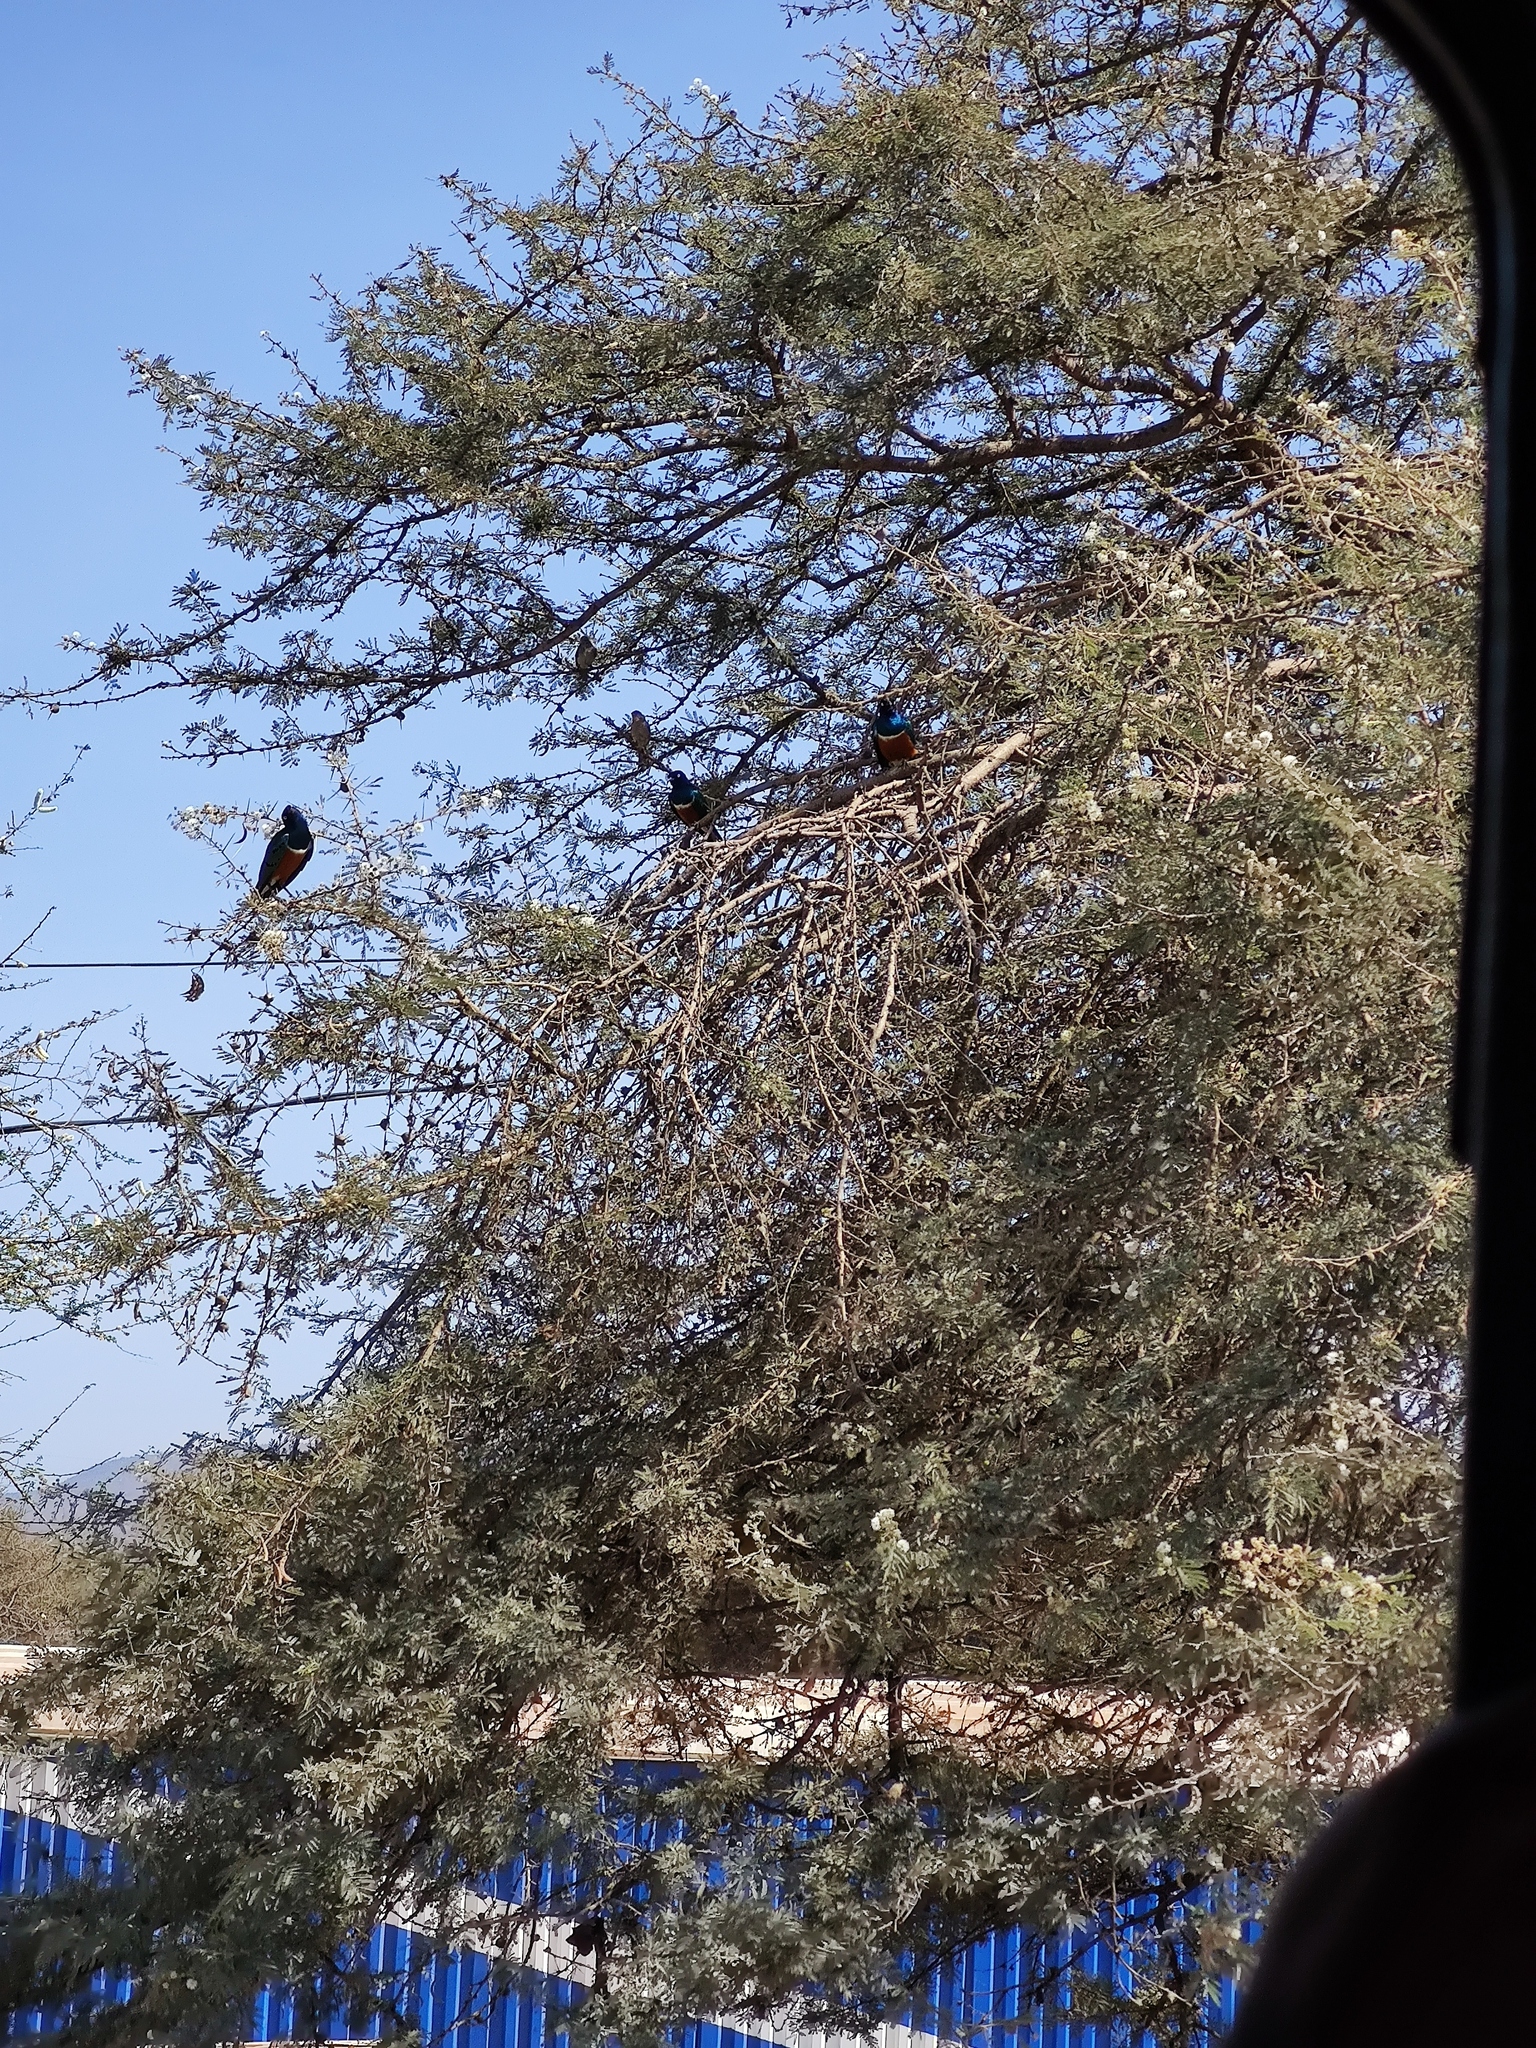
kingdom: Animalia
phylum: Chordata
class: Aves
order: Passeriformes
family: Sturnidae
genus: Lamprotornis
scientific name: Lamprotornis superbus
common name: Superb starling
